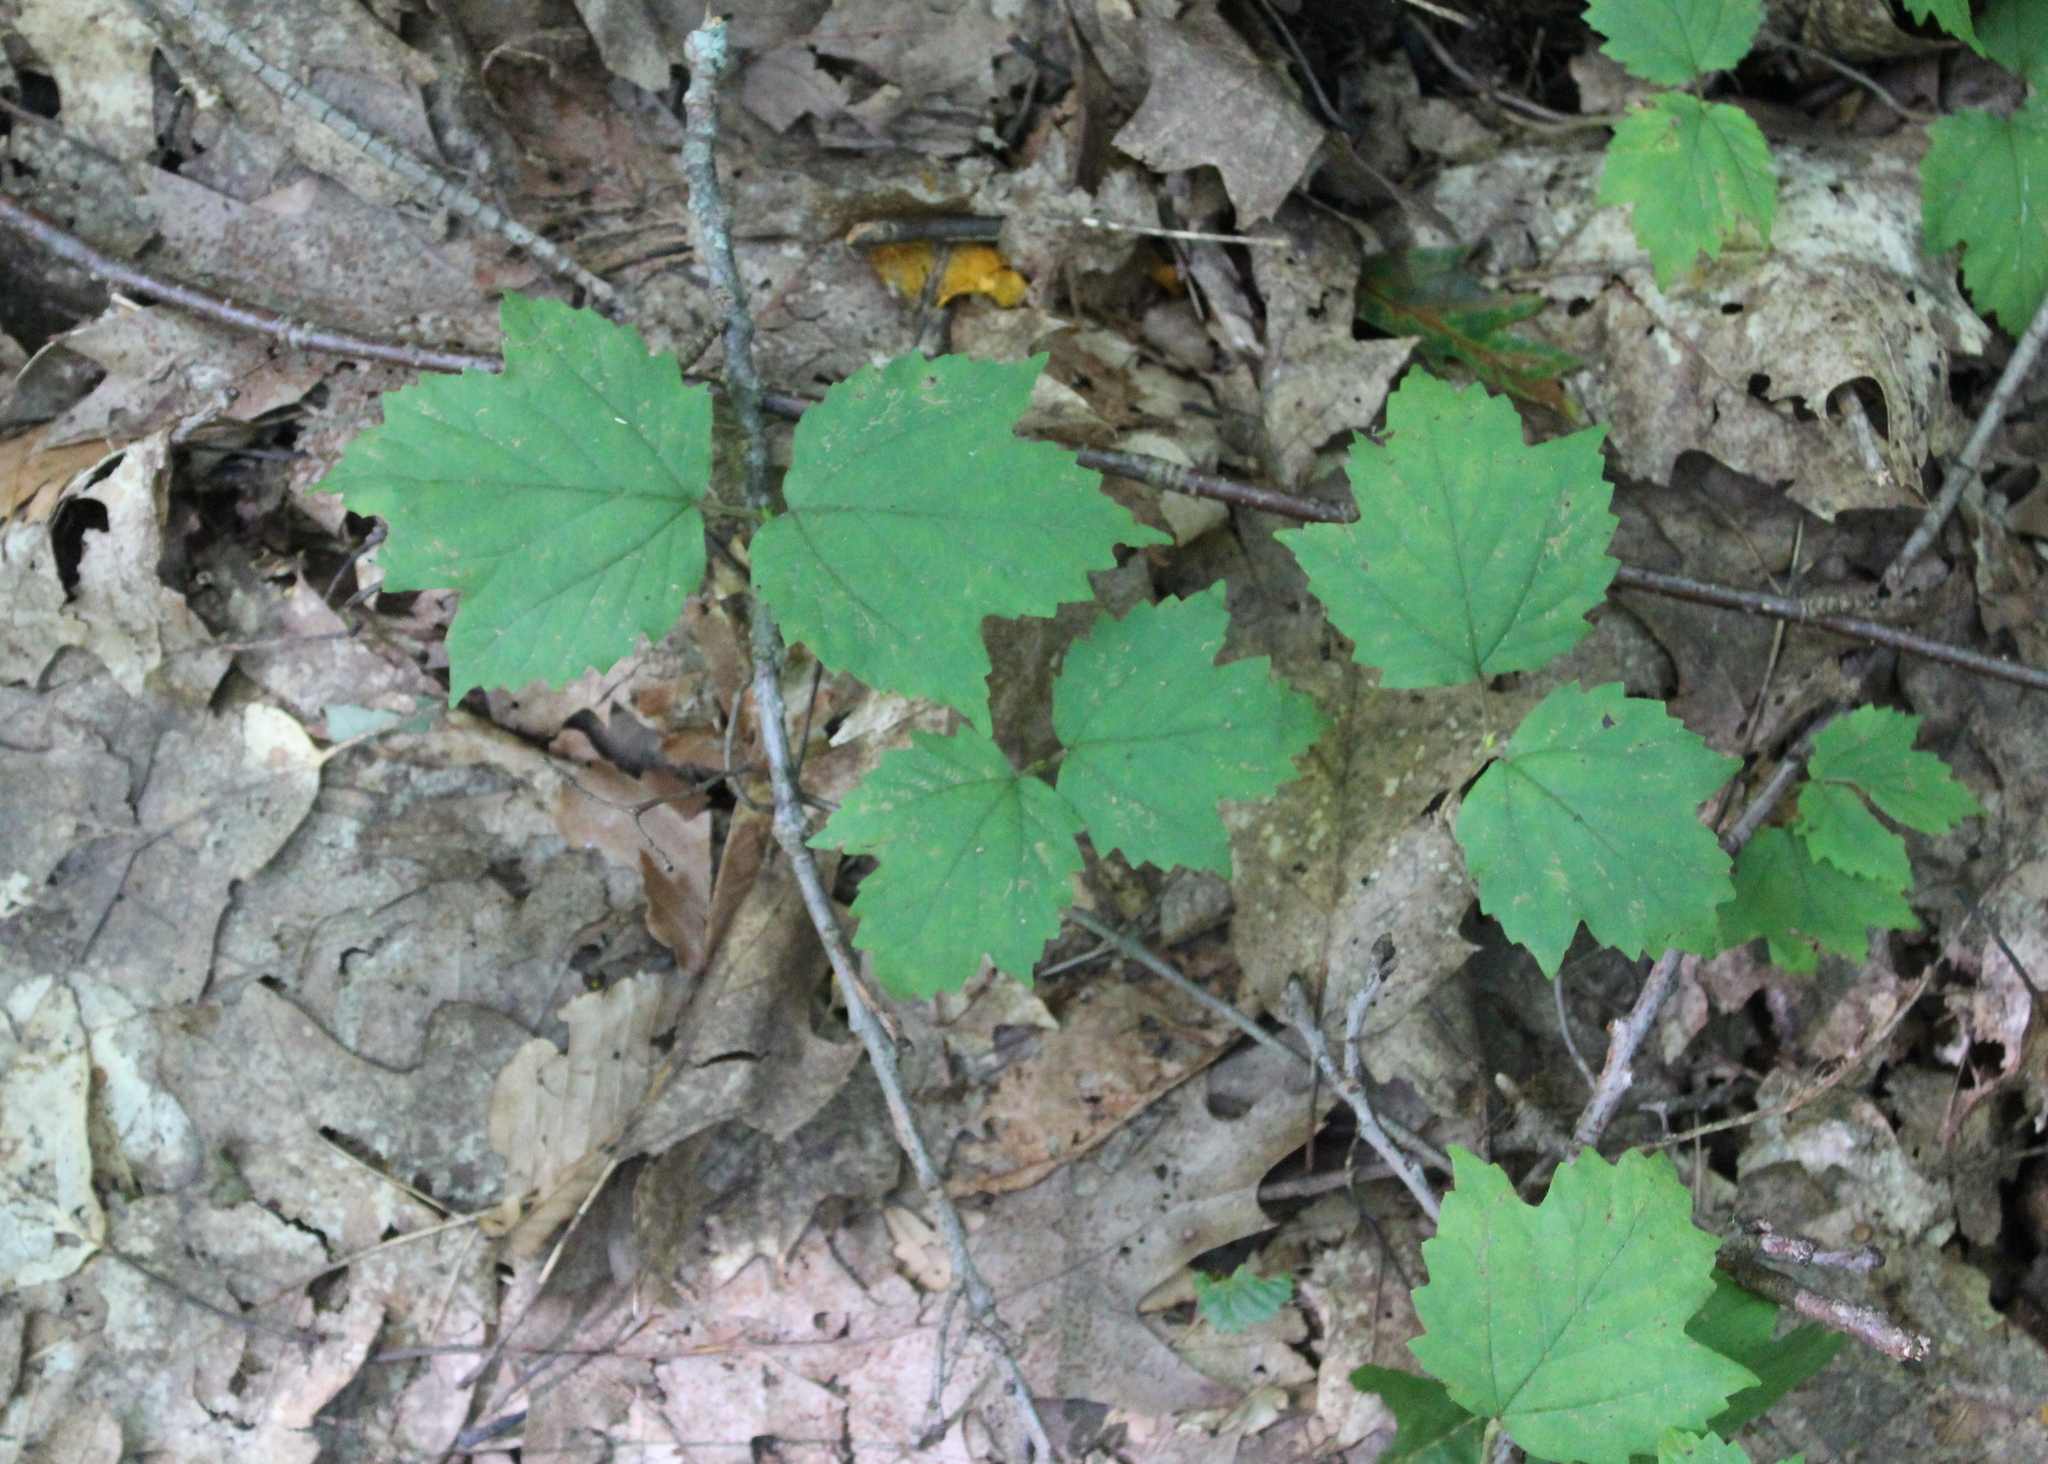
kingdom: Plantae
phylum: Tracheophyta
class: Magnoliopsida
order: Dipsacales
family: Viburnaceae
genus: Viburnum
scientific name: Viburnum acerifolium
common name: Dockmackie
